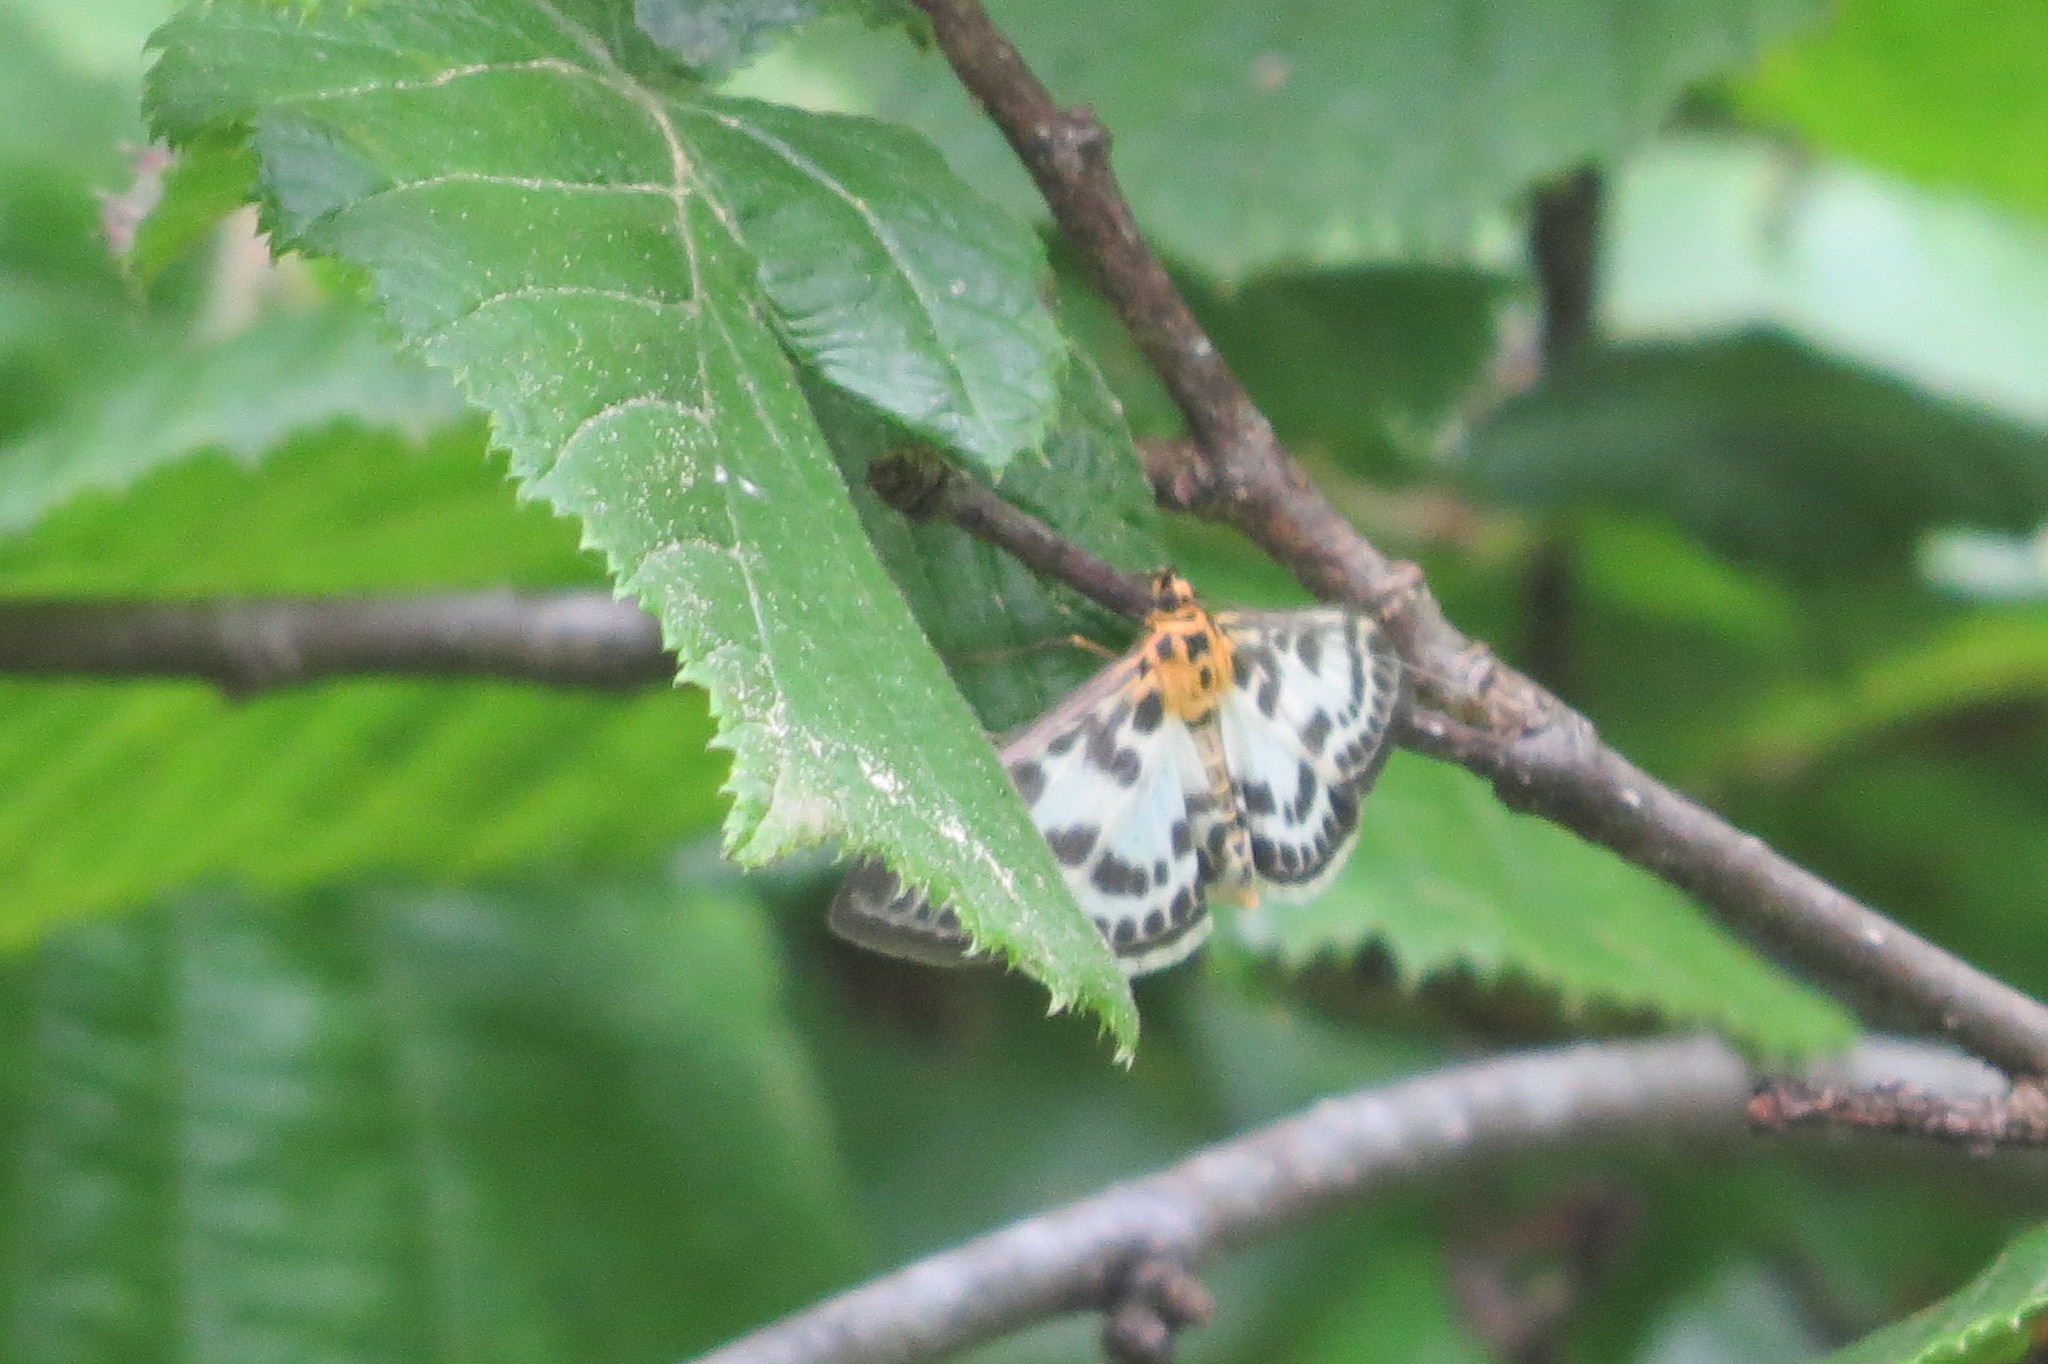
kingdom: Animalia
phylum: Arthropoda
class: Insecta
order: Lepidoptera
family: Crambidae
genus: Anania
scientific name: Anania hortulata
